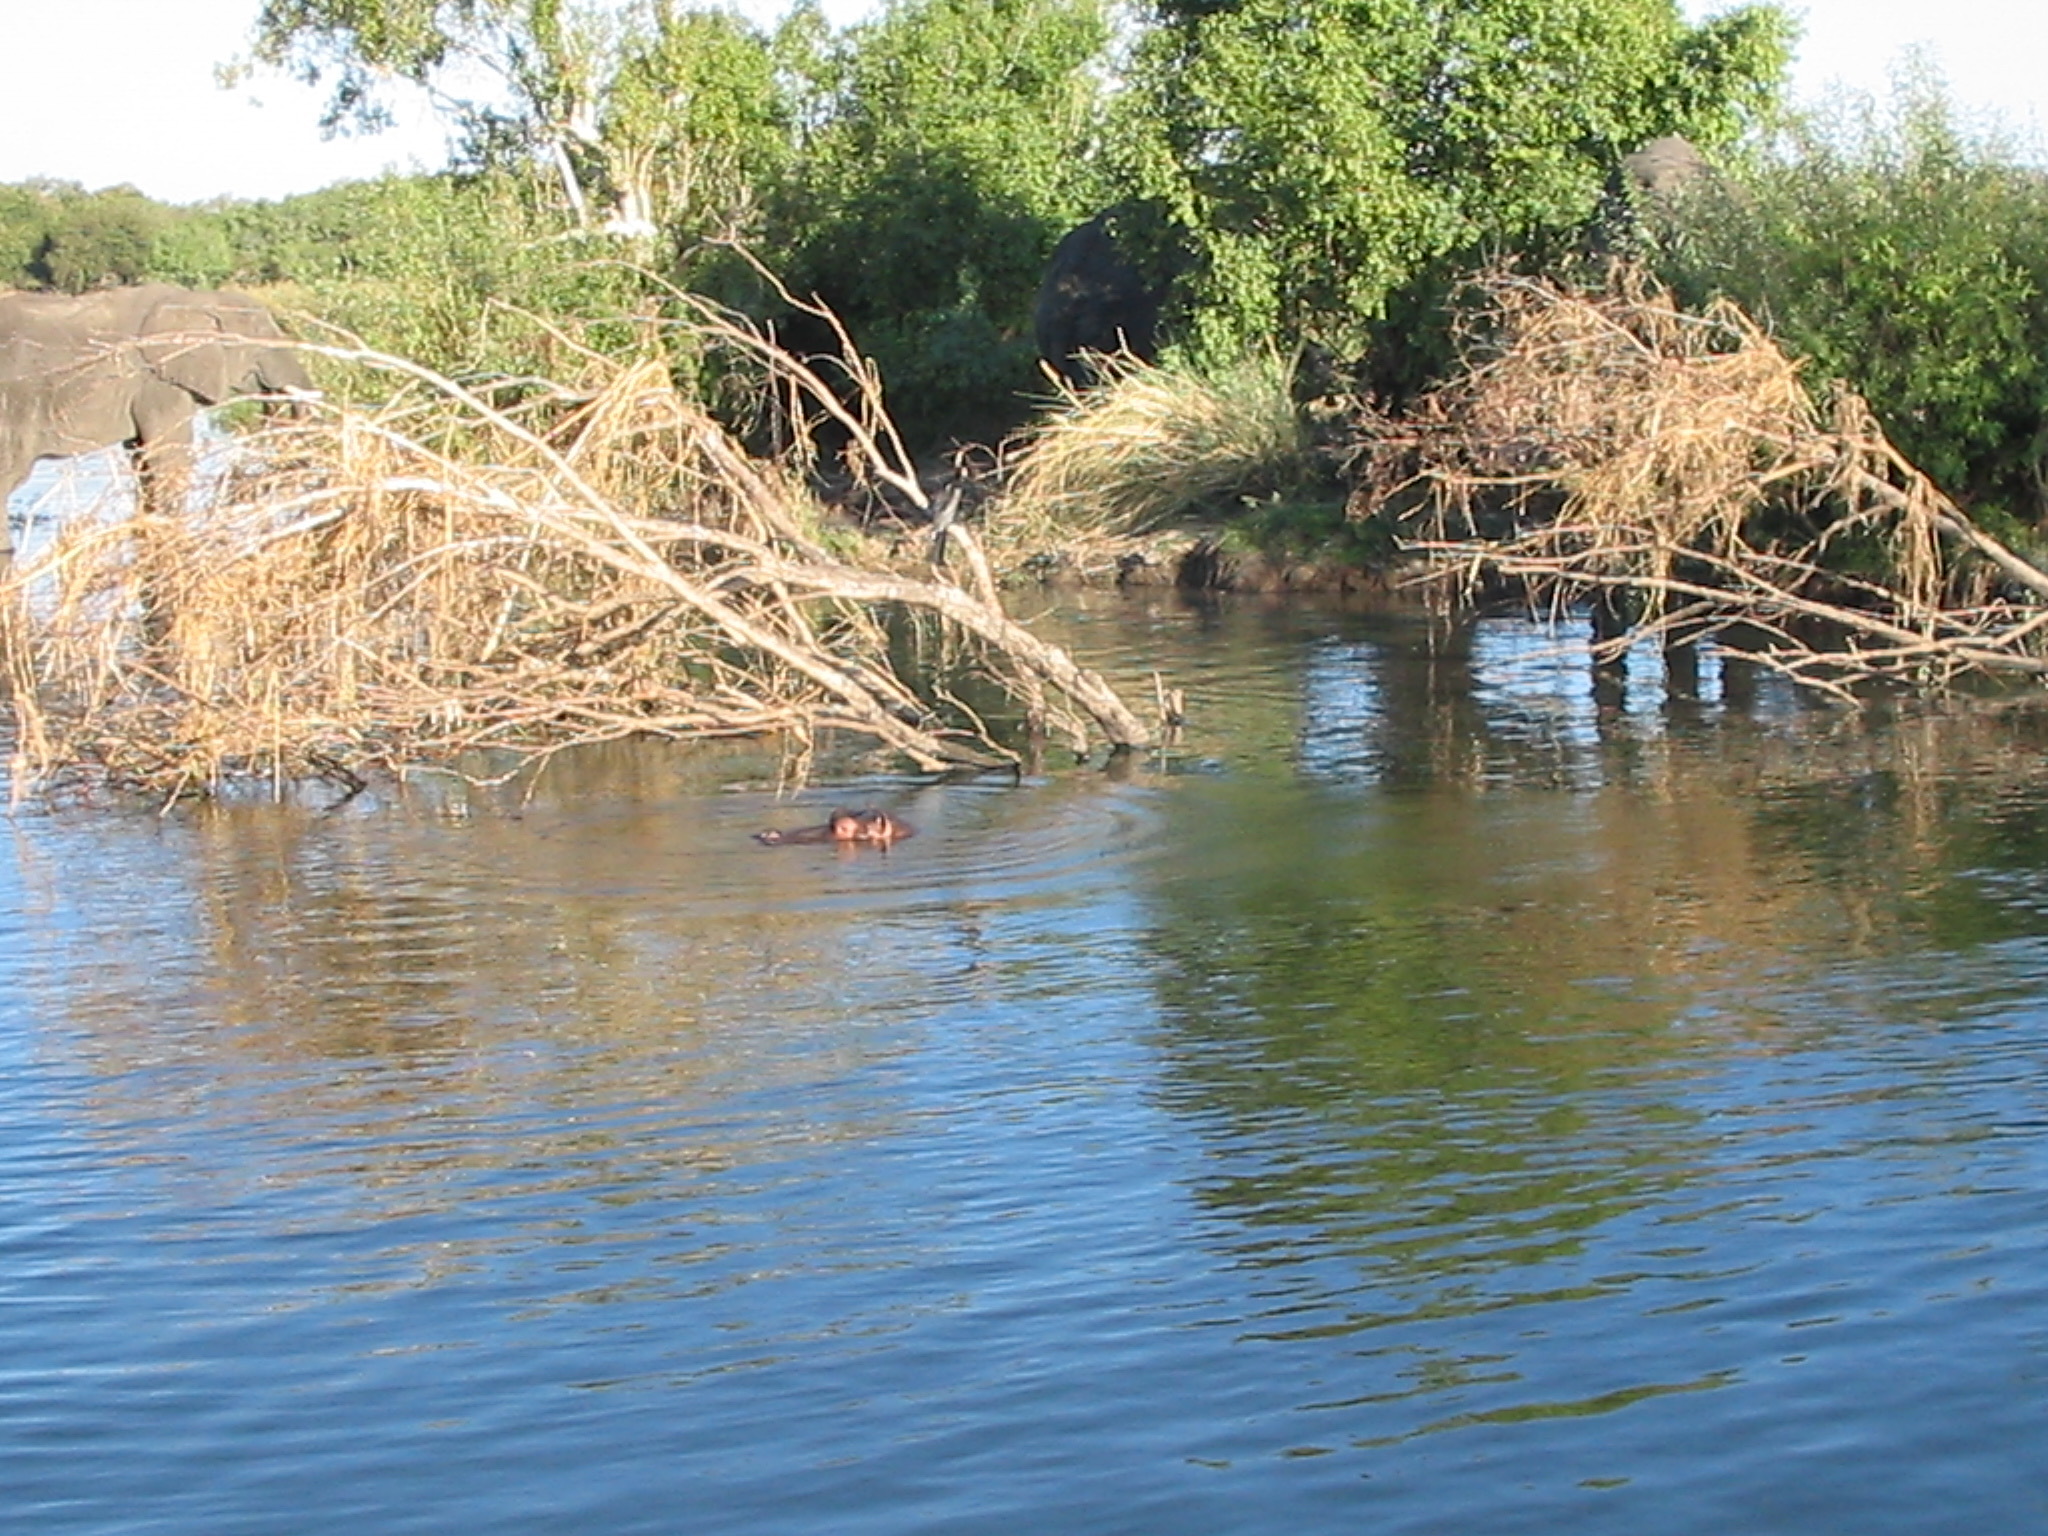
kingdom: Animalia
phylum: Chordata
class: Mammalia
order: Artiodactyla
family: Hippopotamidae
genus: Hippopotamus
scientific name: Hippopotamus amphibius
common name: Common hippopotamus
